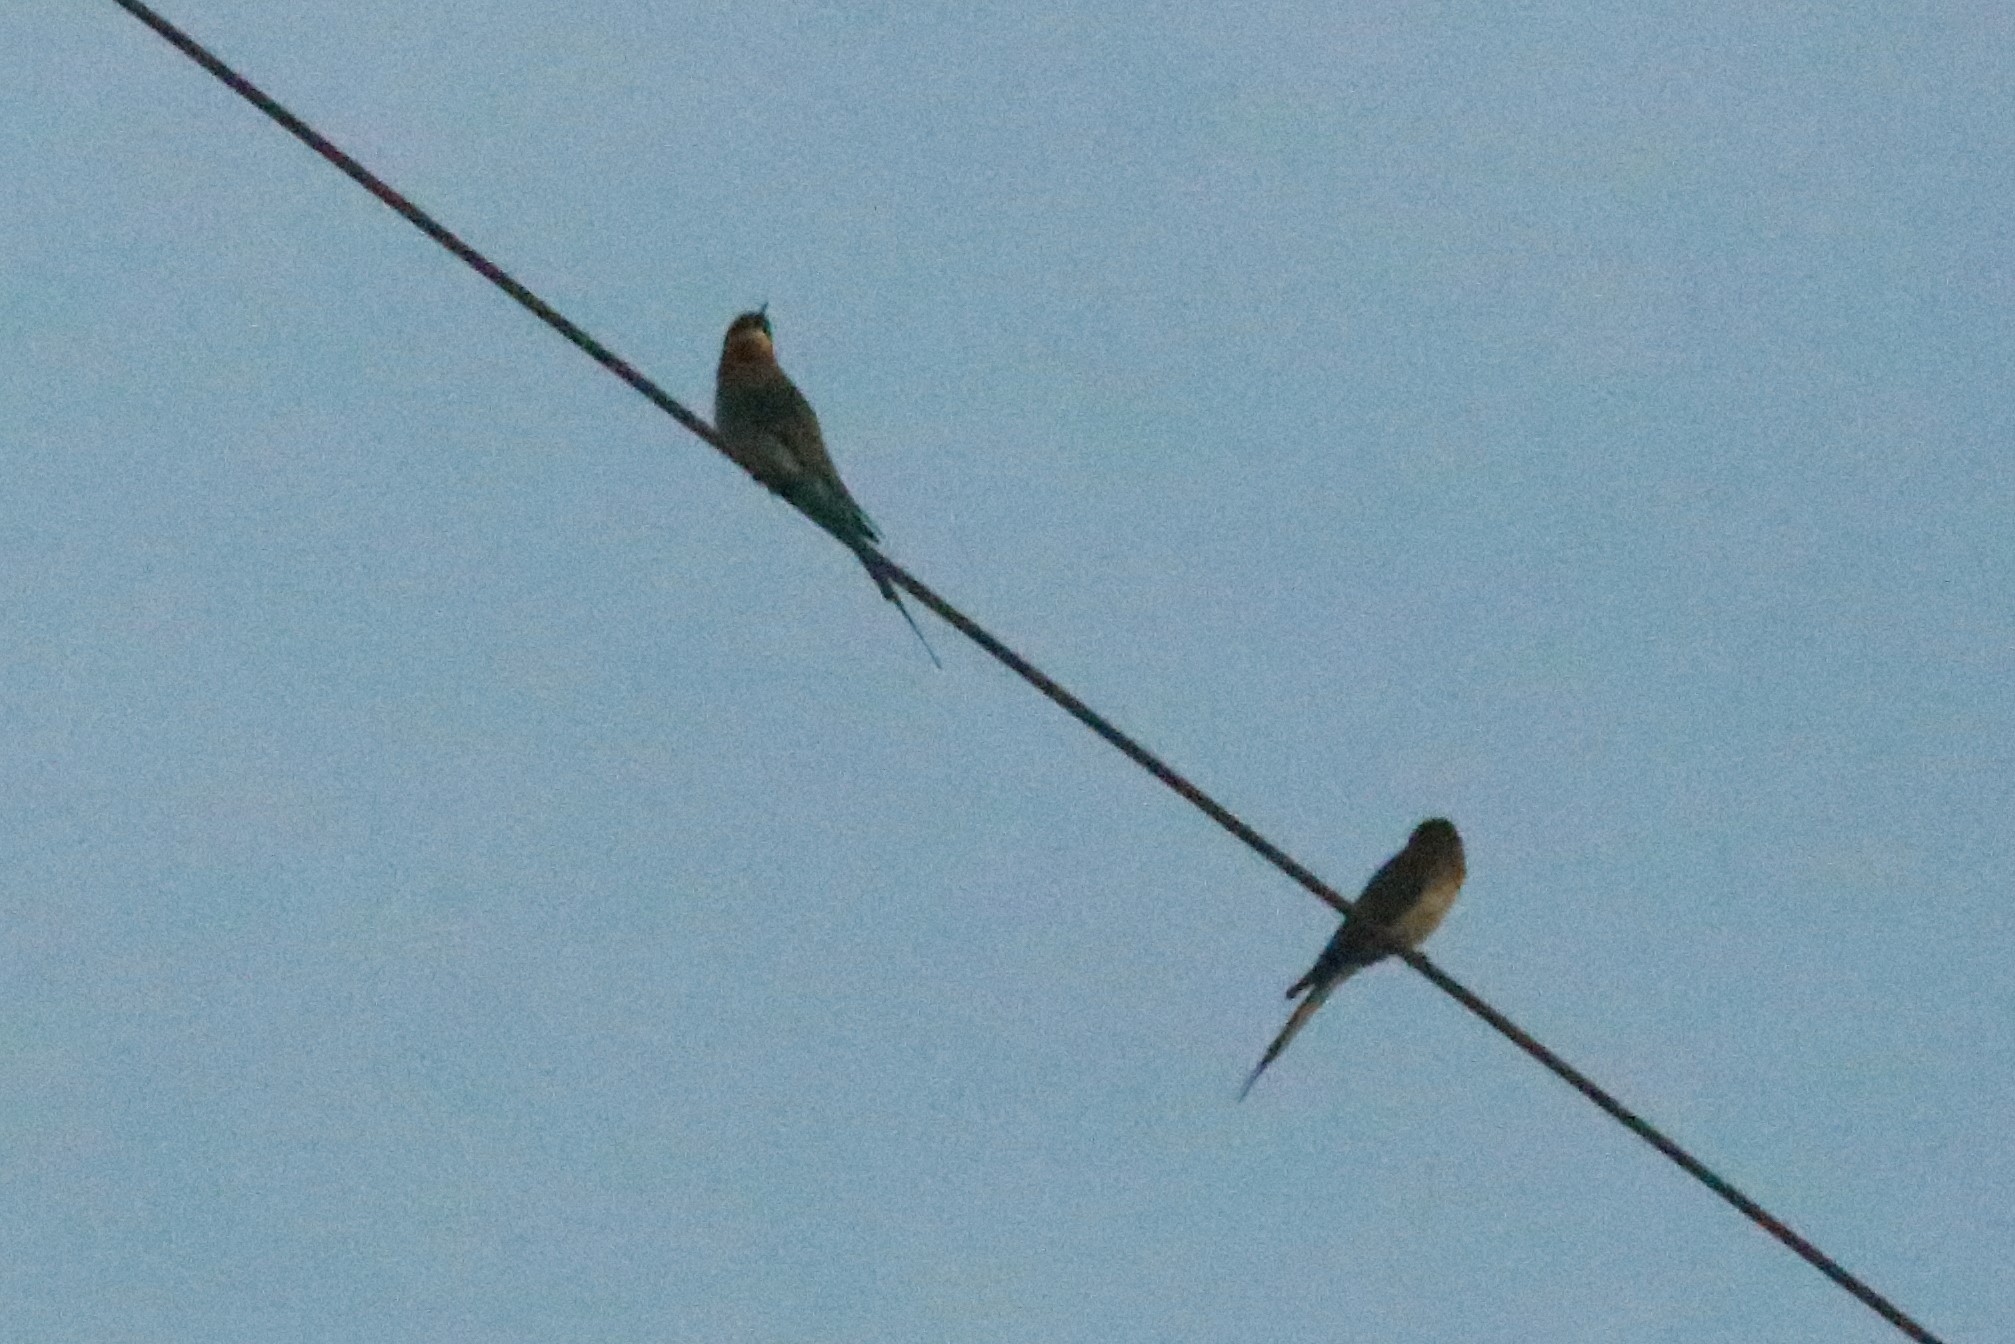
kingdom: Animalia
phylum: Chordata
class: Aves
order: Coraciiformes
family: Meropidae
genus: Merops
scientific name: Merops philippinus
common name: Blue-tailed bee-eater
